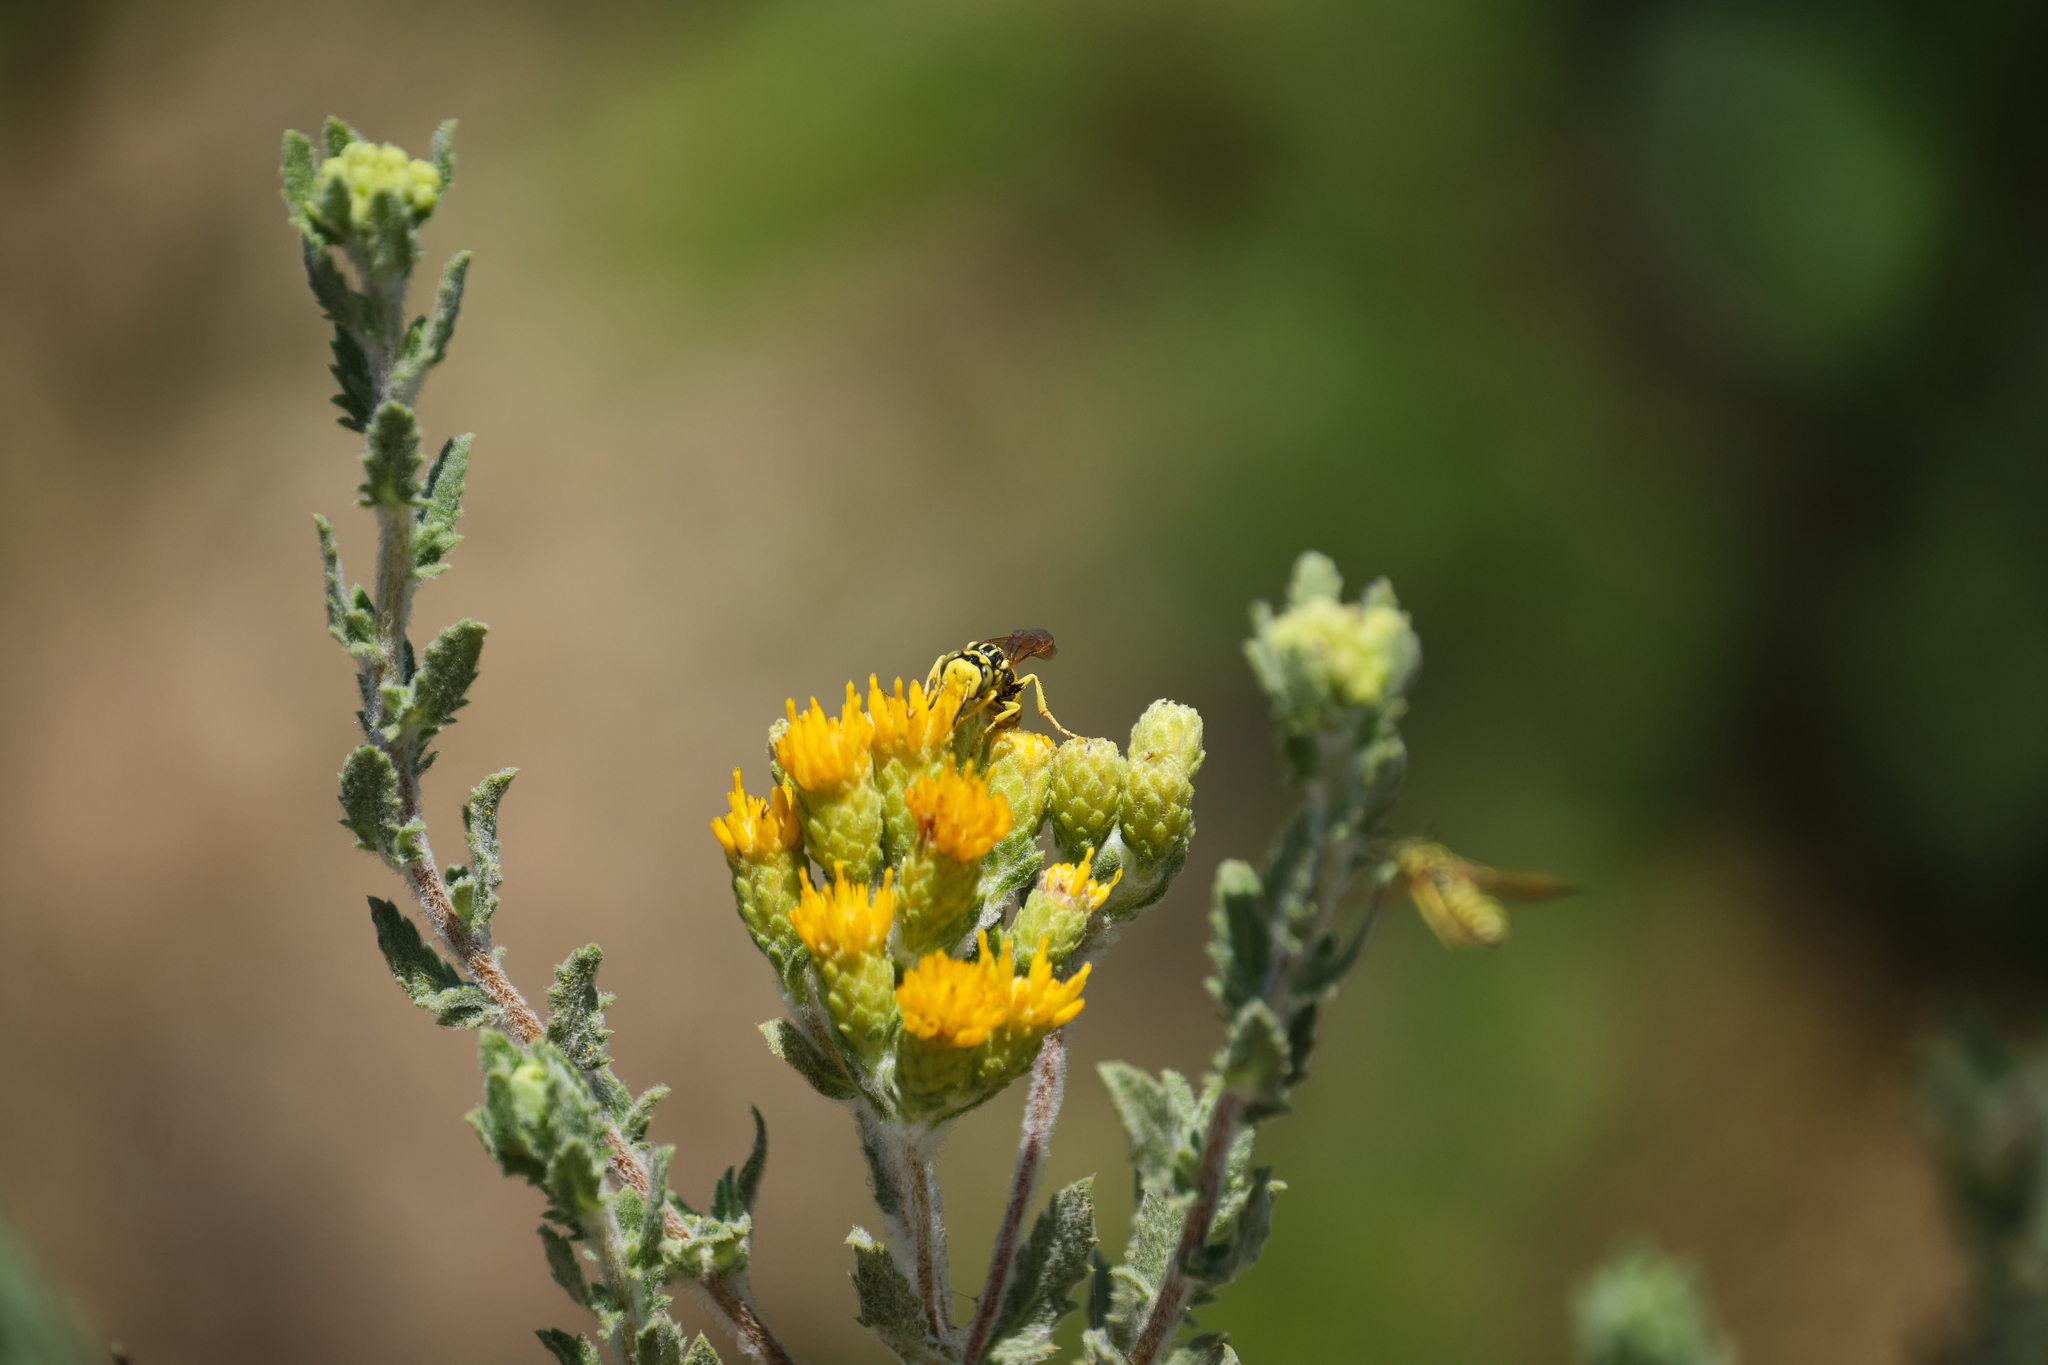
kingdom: Plantae
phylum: Tracheophyta
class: Magnoliopsida
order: Asterales
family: Asteraceae
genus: Isocoma
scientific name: Isocoma menziesii
